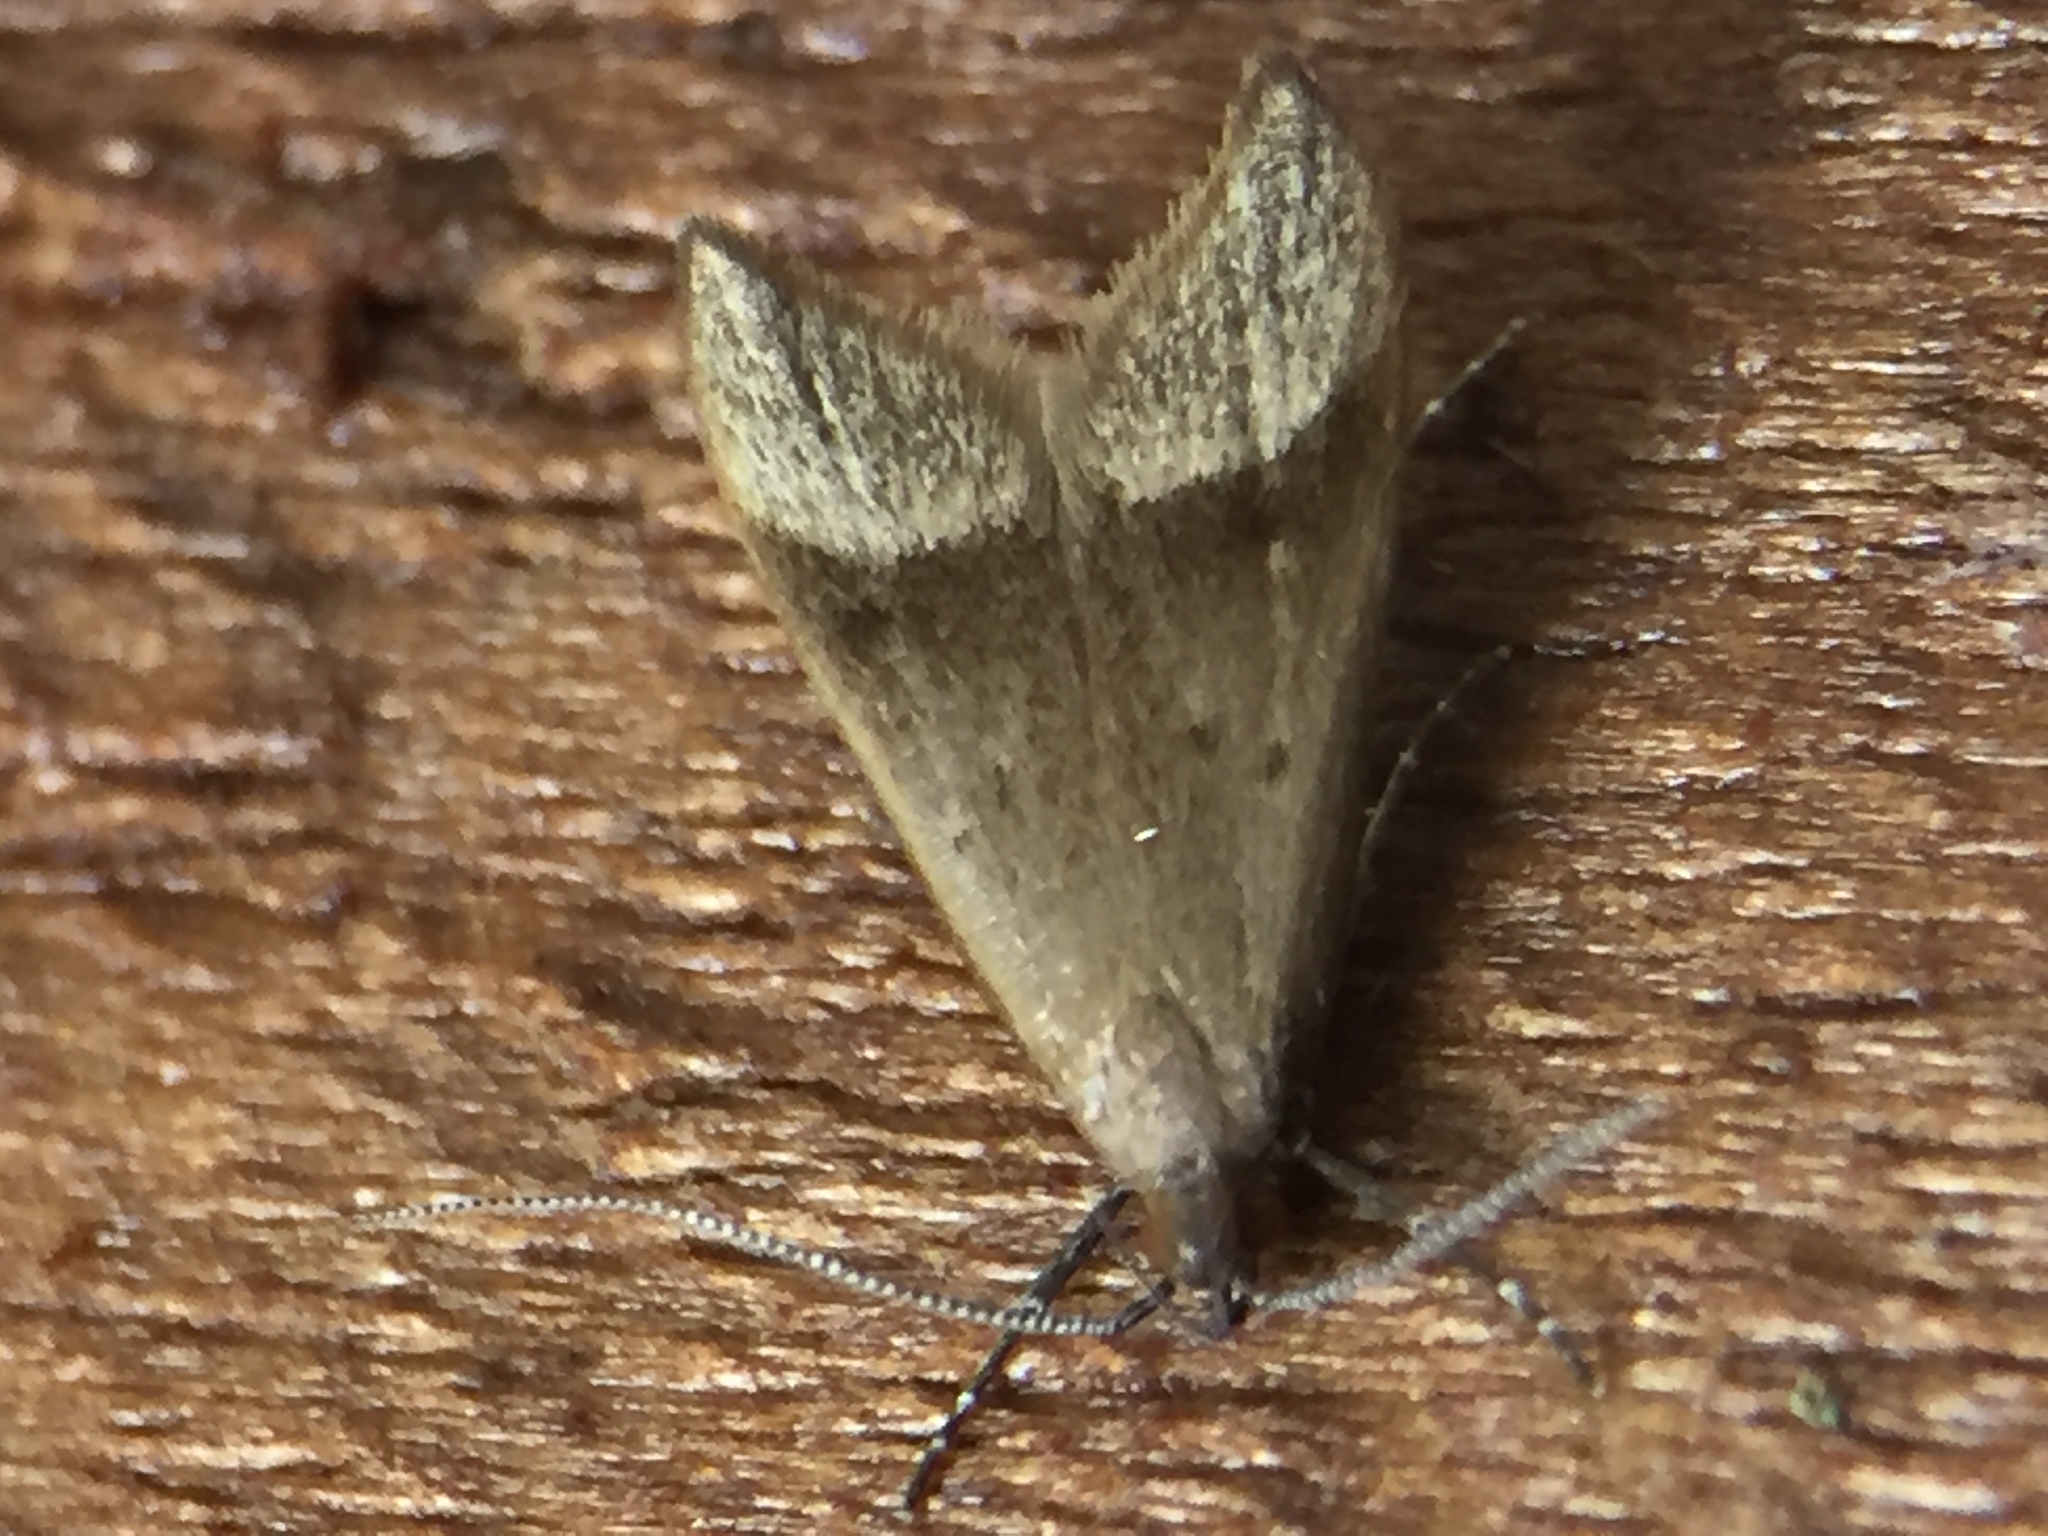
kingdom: Animalia
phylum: Arthropoda
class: Insecta
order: Lepidoptera
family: Oecophoridae
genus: Gymnobathra
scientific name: Gymnobathra hyetodes
